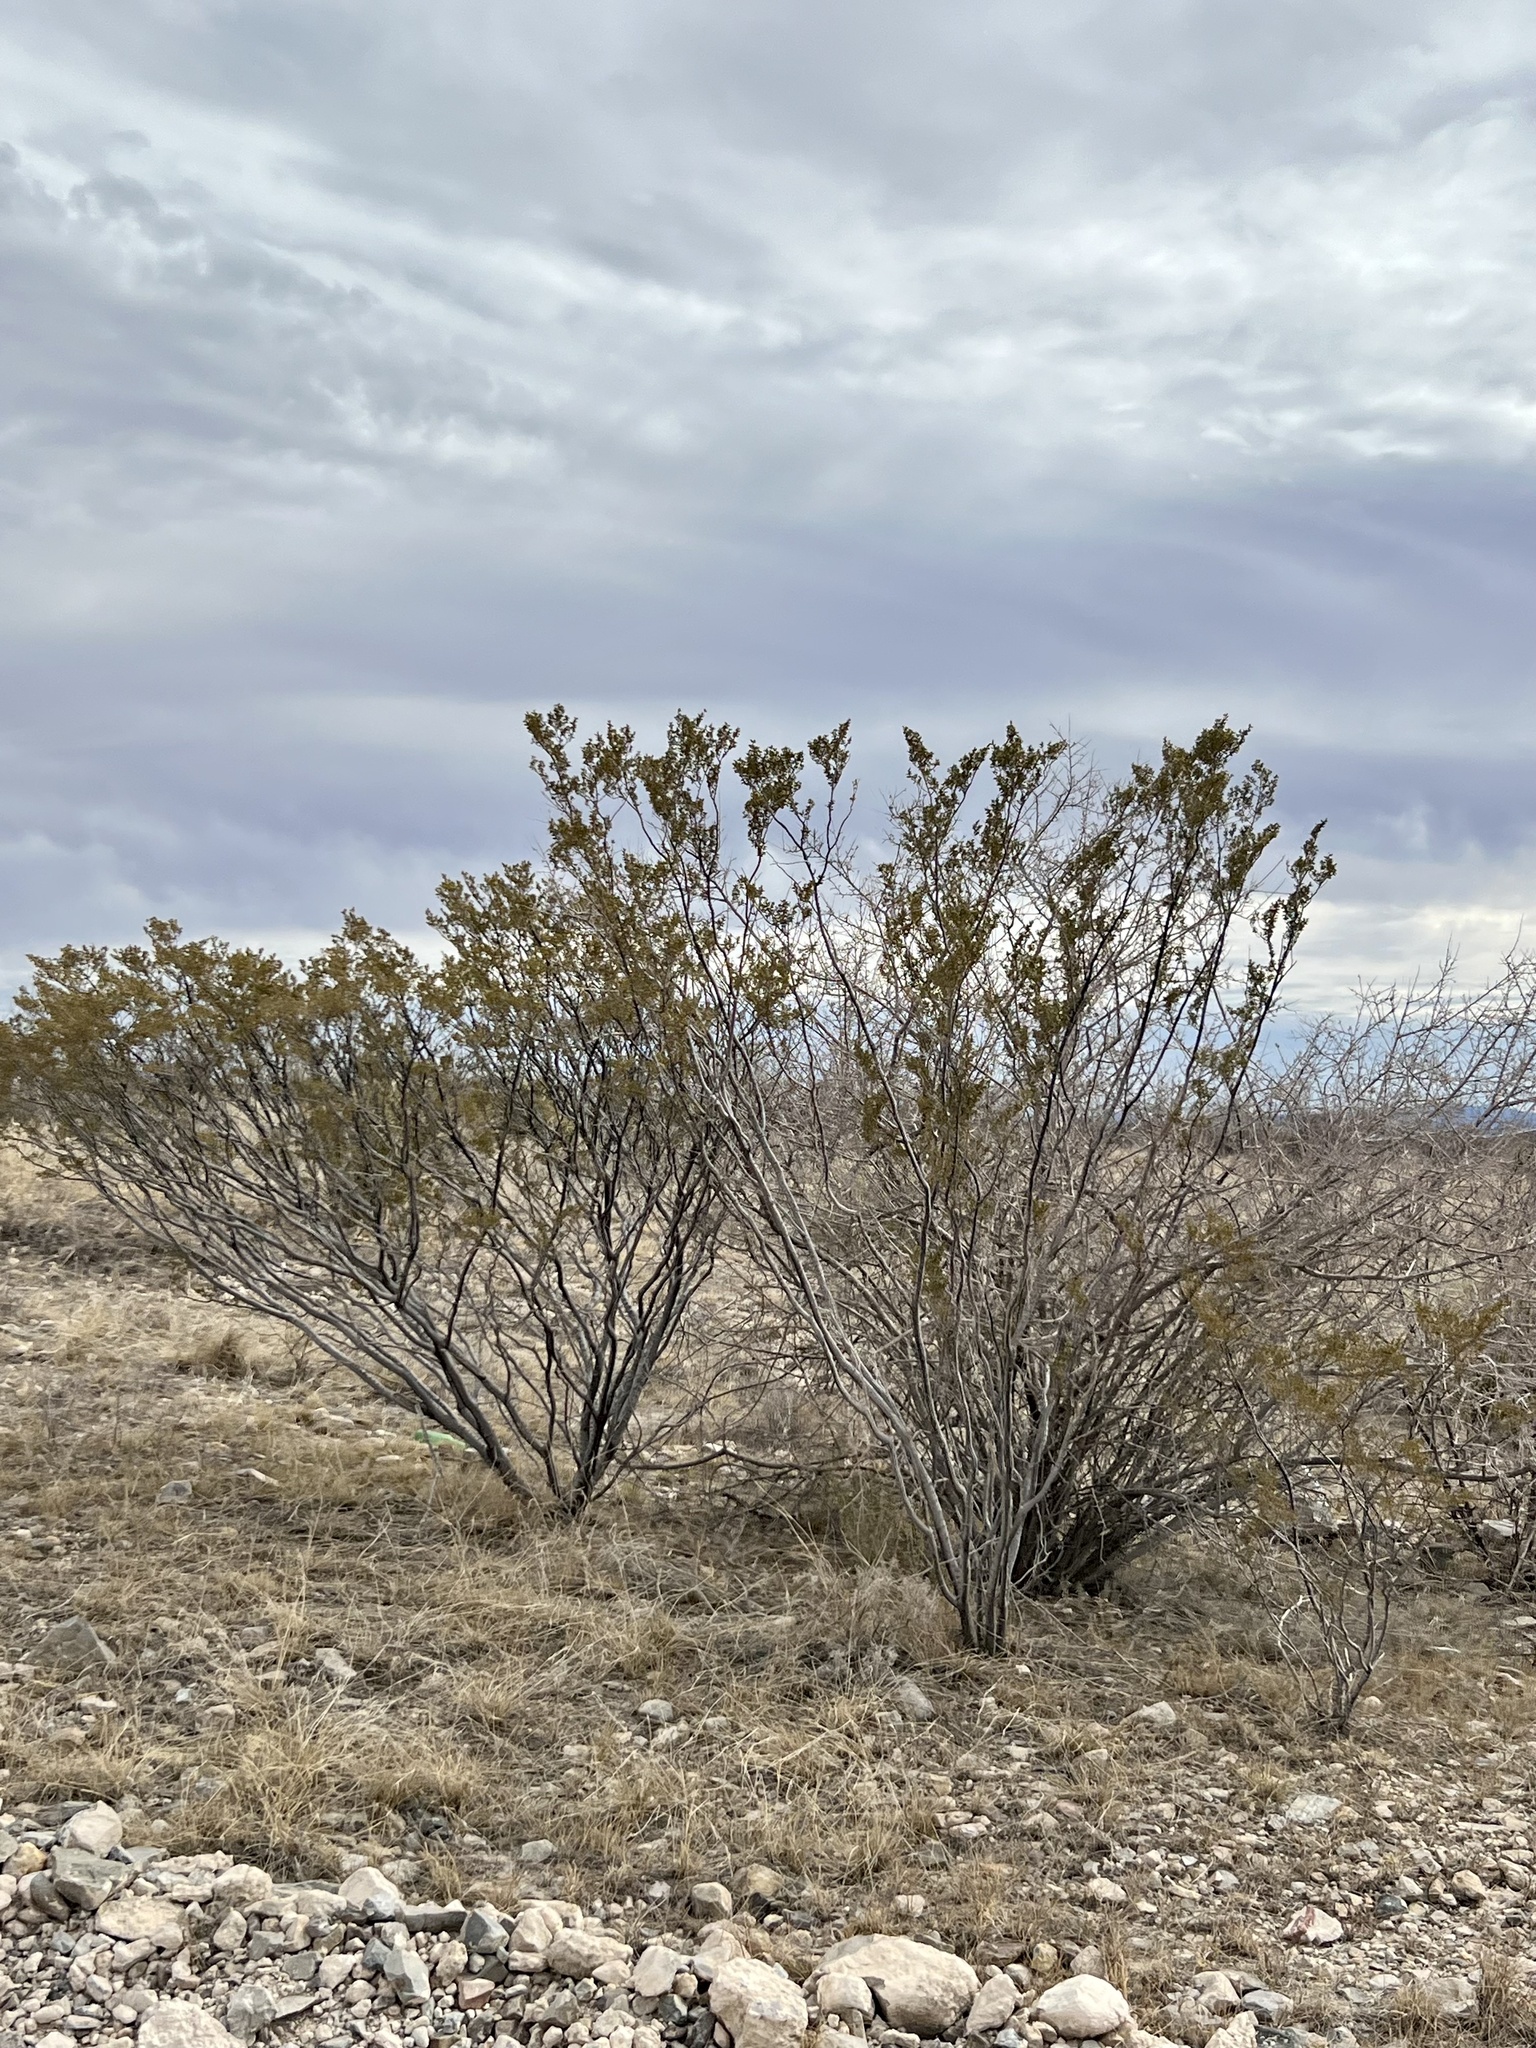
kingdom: Plantae
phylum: Tracheophyta
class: Magnoliopsida
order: Zygophyllales
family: Zygophyllaceae
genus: Larrea
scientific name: Larrea tridentata
